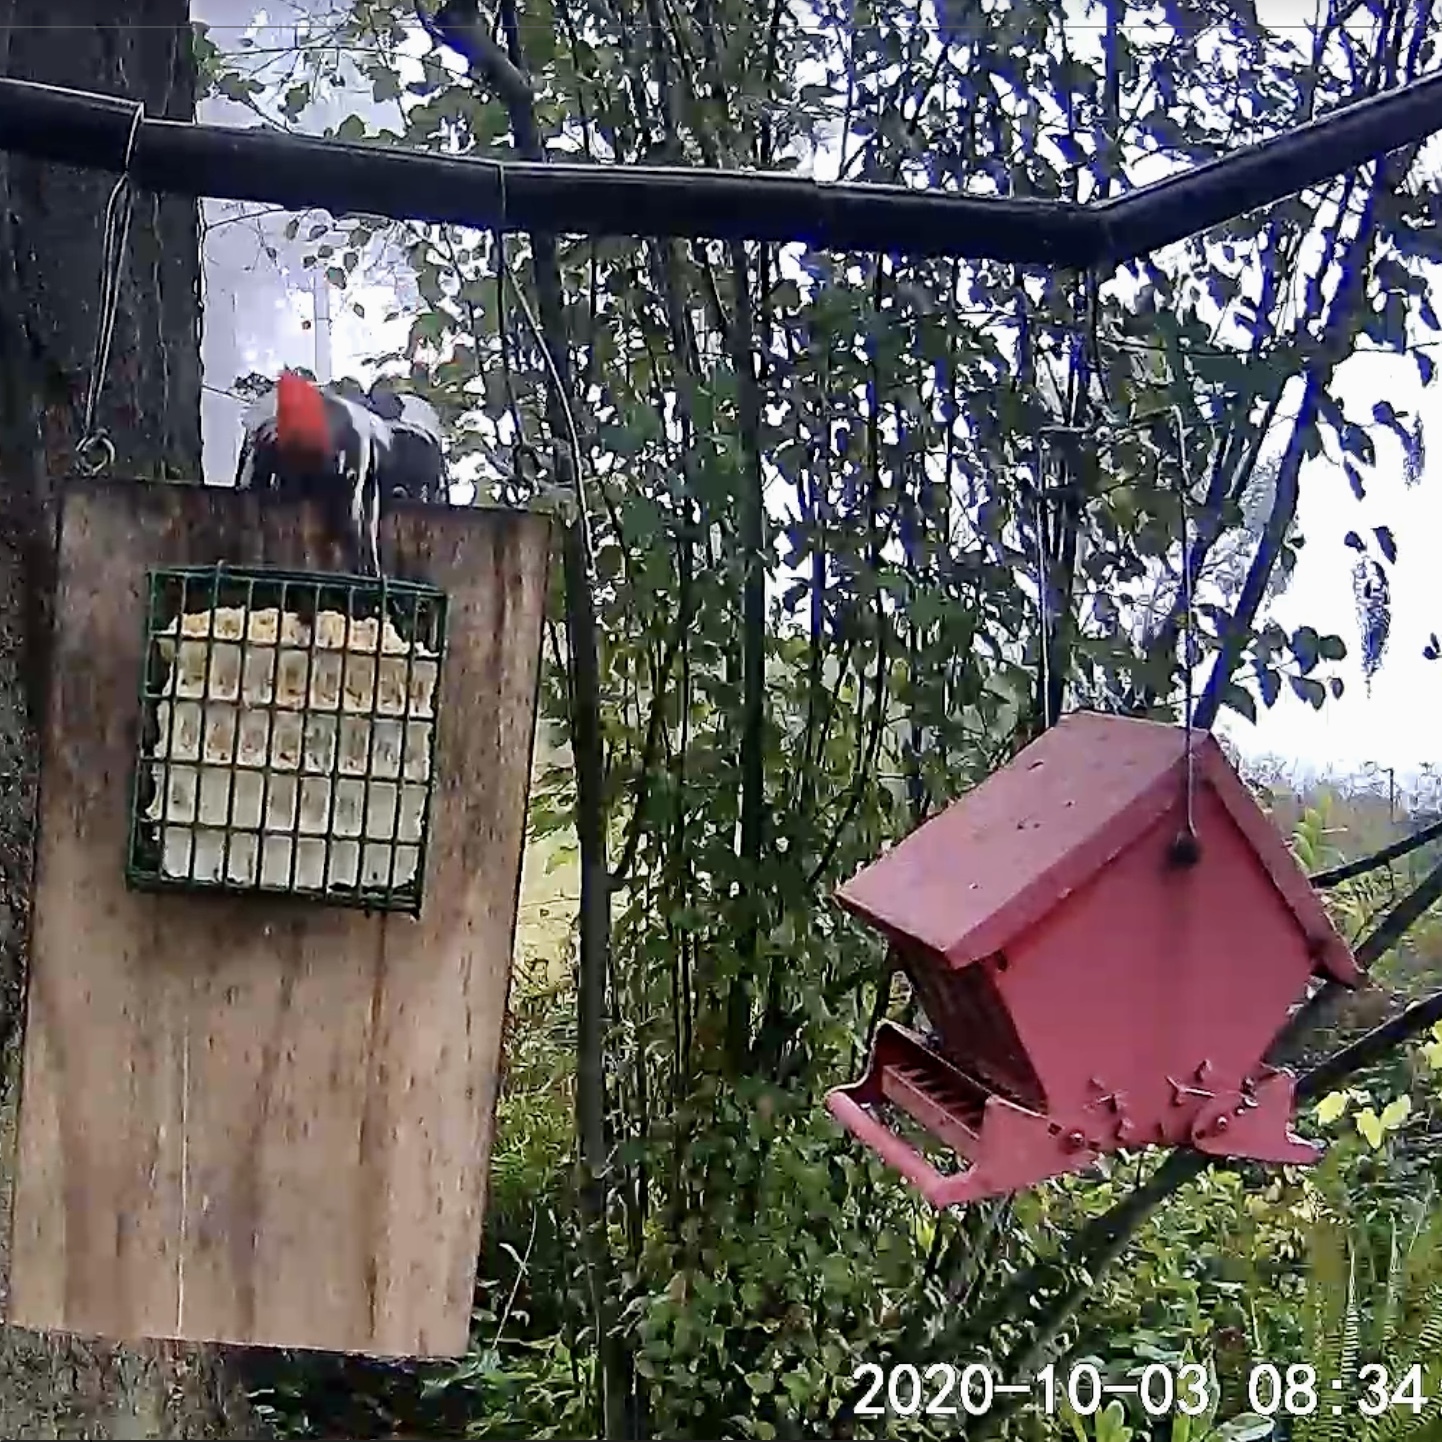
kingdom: Animalia
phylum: Chordata
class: Aves
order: Piciformes
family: Picidae
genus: Dryocopus
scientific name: Dryocopus pileatus
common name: Pileated woodpecker
